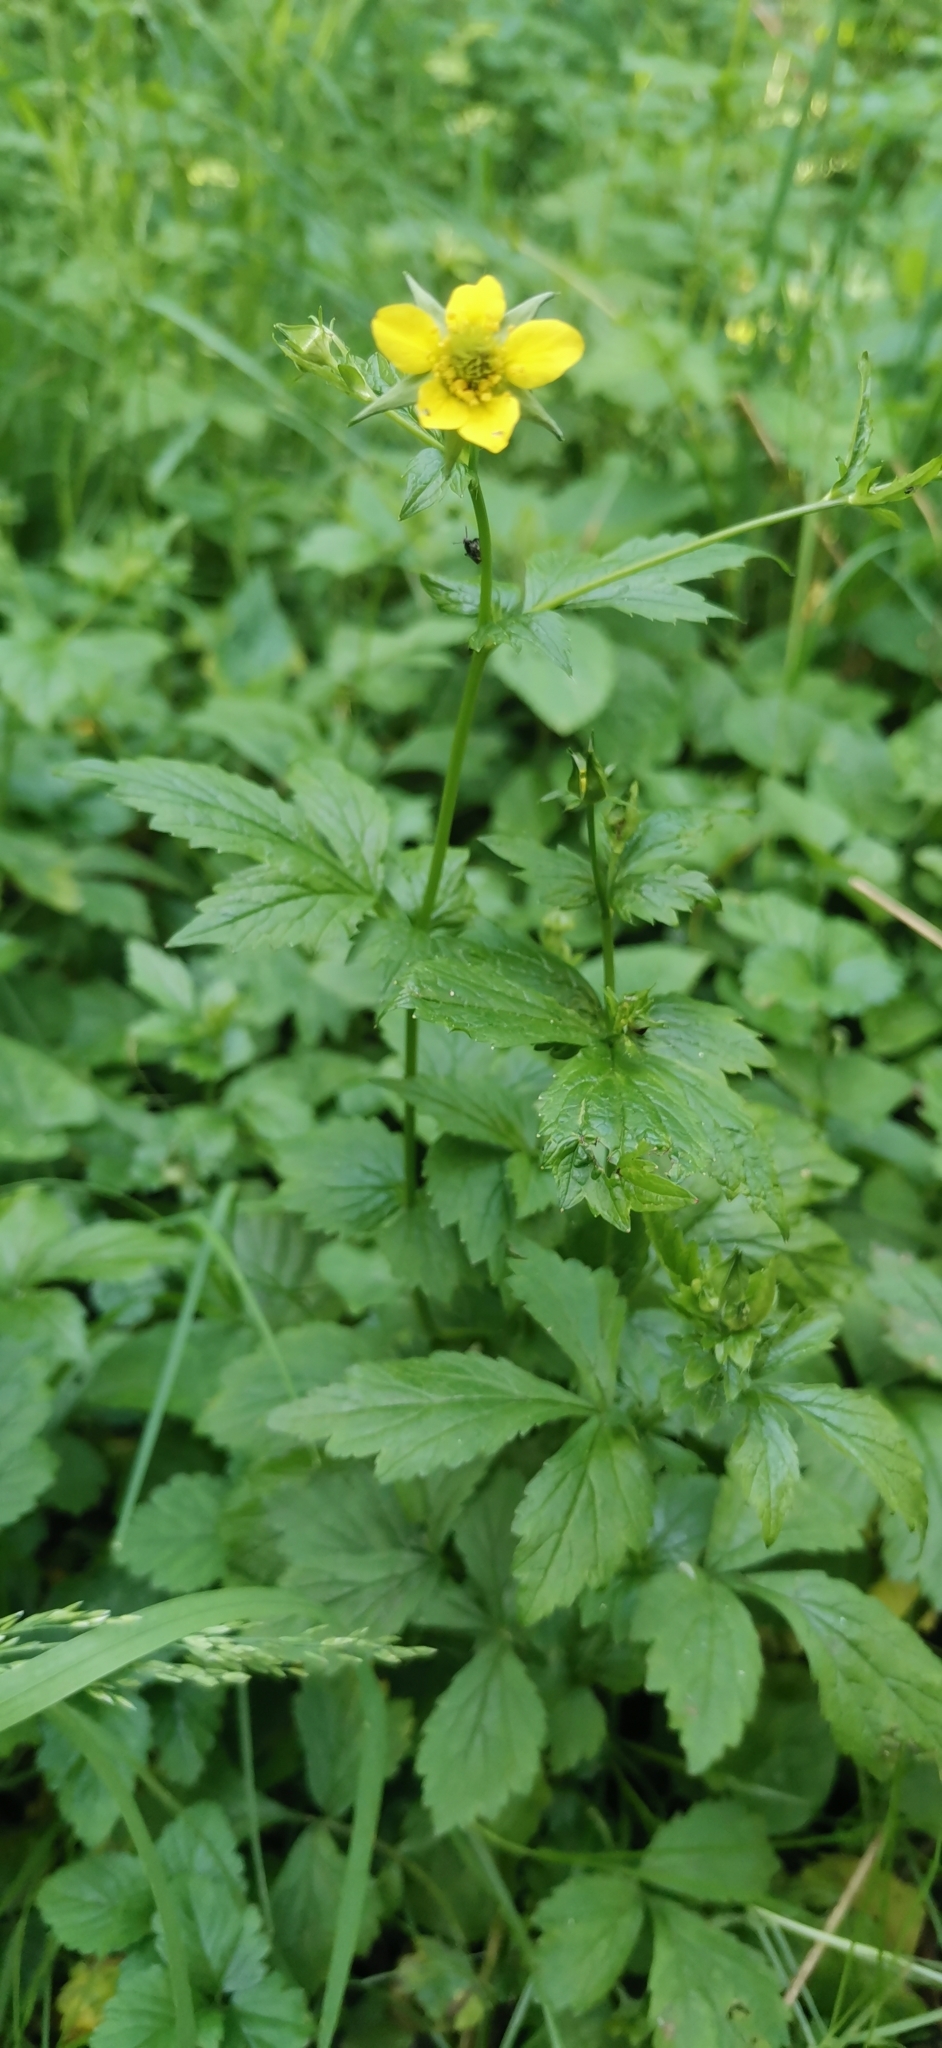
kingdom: Plantae
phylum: Tracheophyta
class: Magnoliopsida
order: Rosales
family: Rosaceae
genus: Geum
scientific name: Geum urbanum
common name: Wood avens
